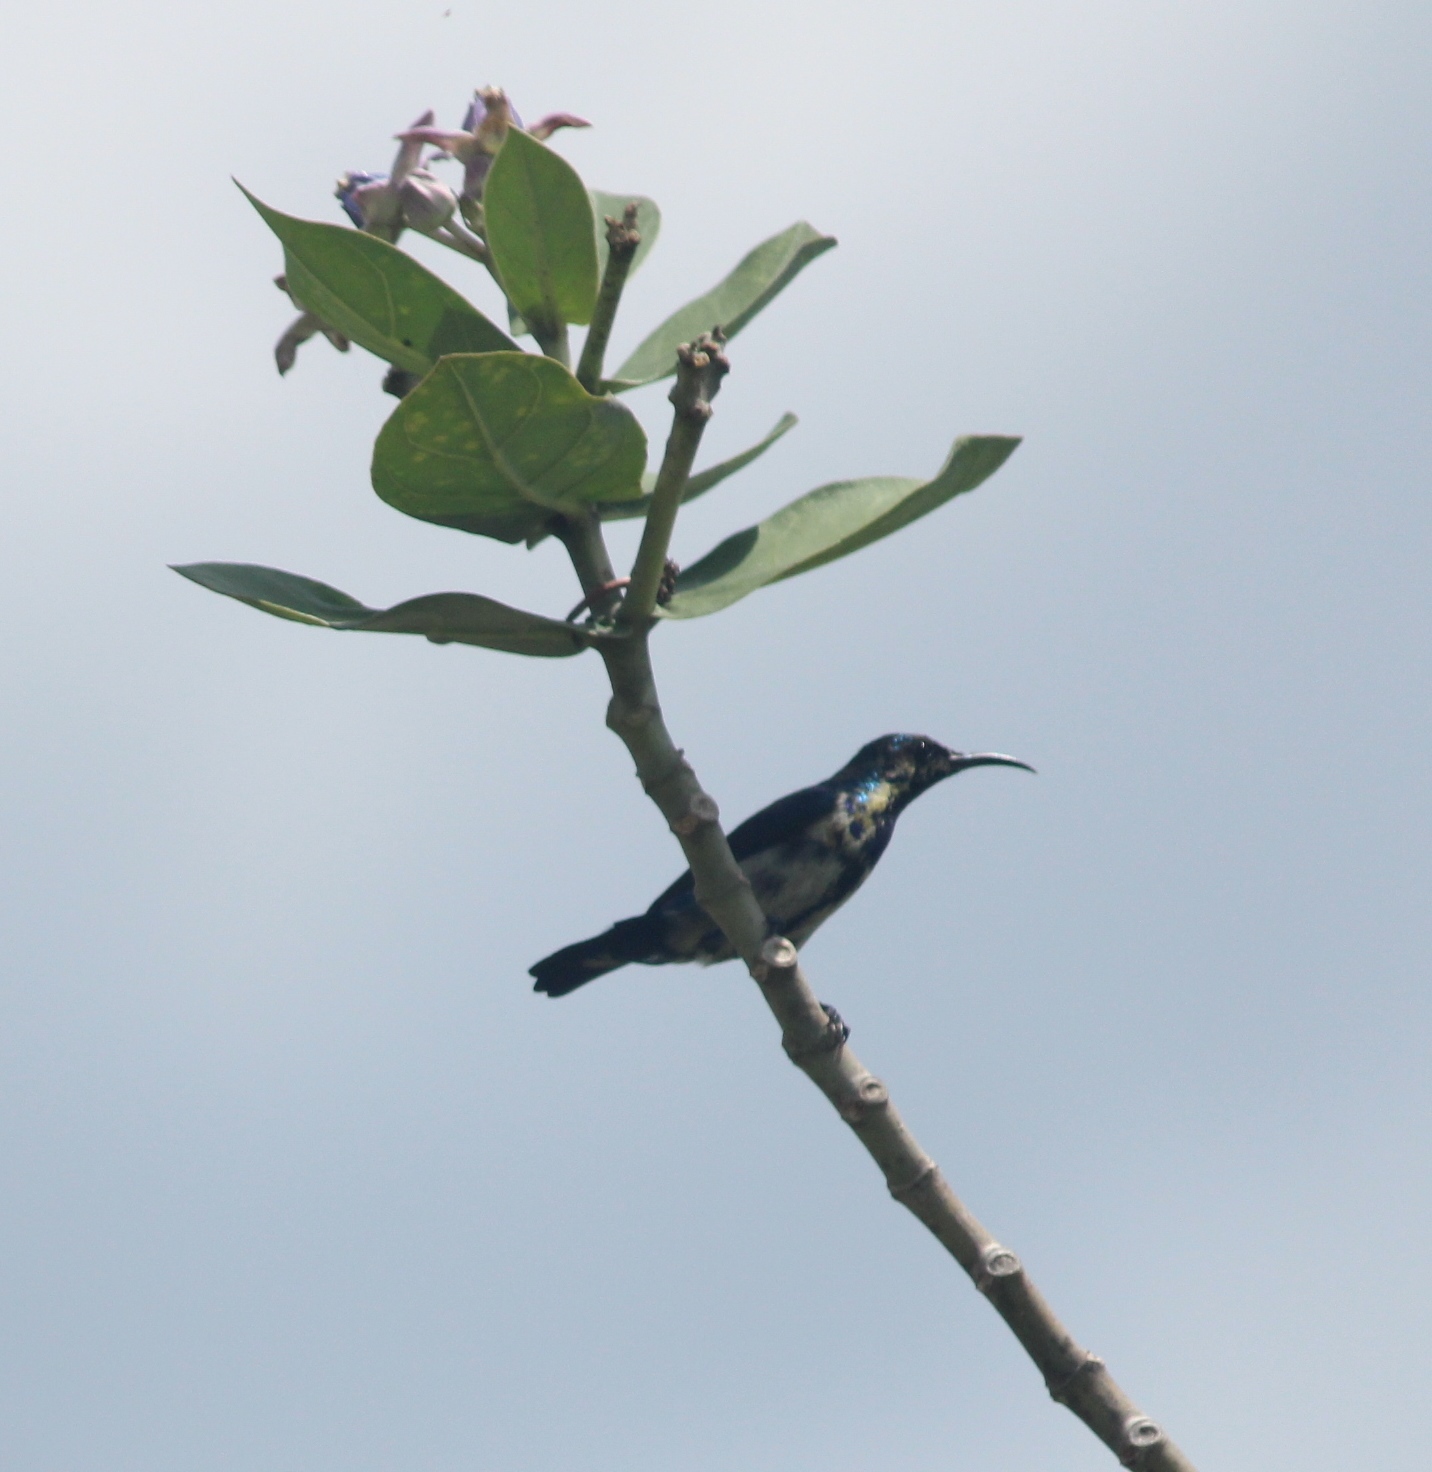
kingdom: Animalia
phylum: Chordata
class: Aves
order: Passeriformes
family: Nectariniidae
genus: Cinnyris
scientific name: Cinnyris asiaticus
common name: Purple sunbird
